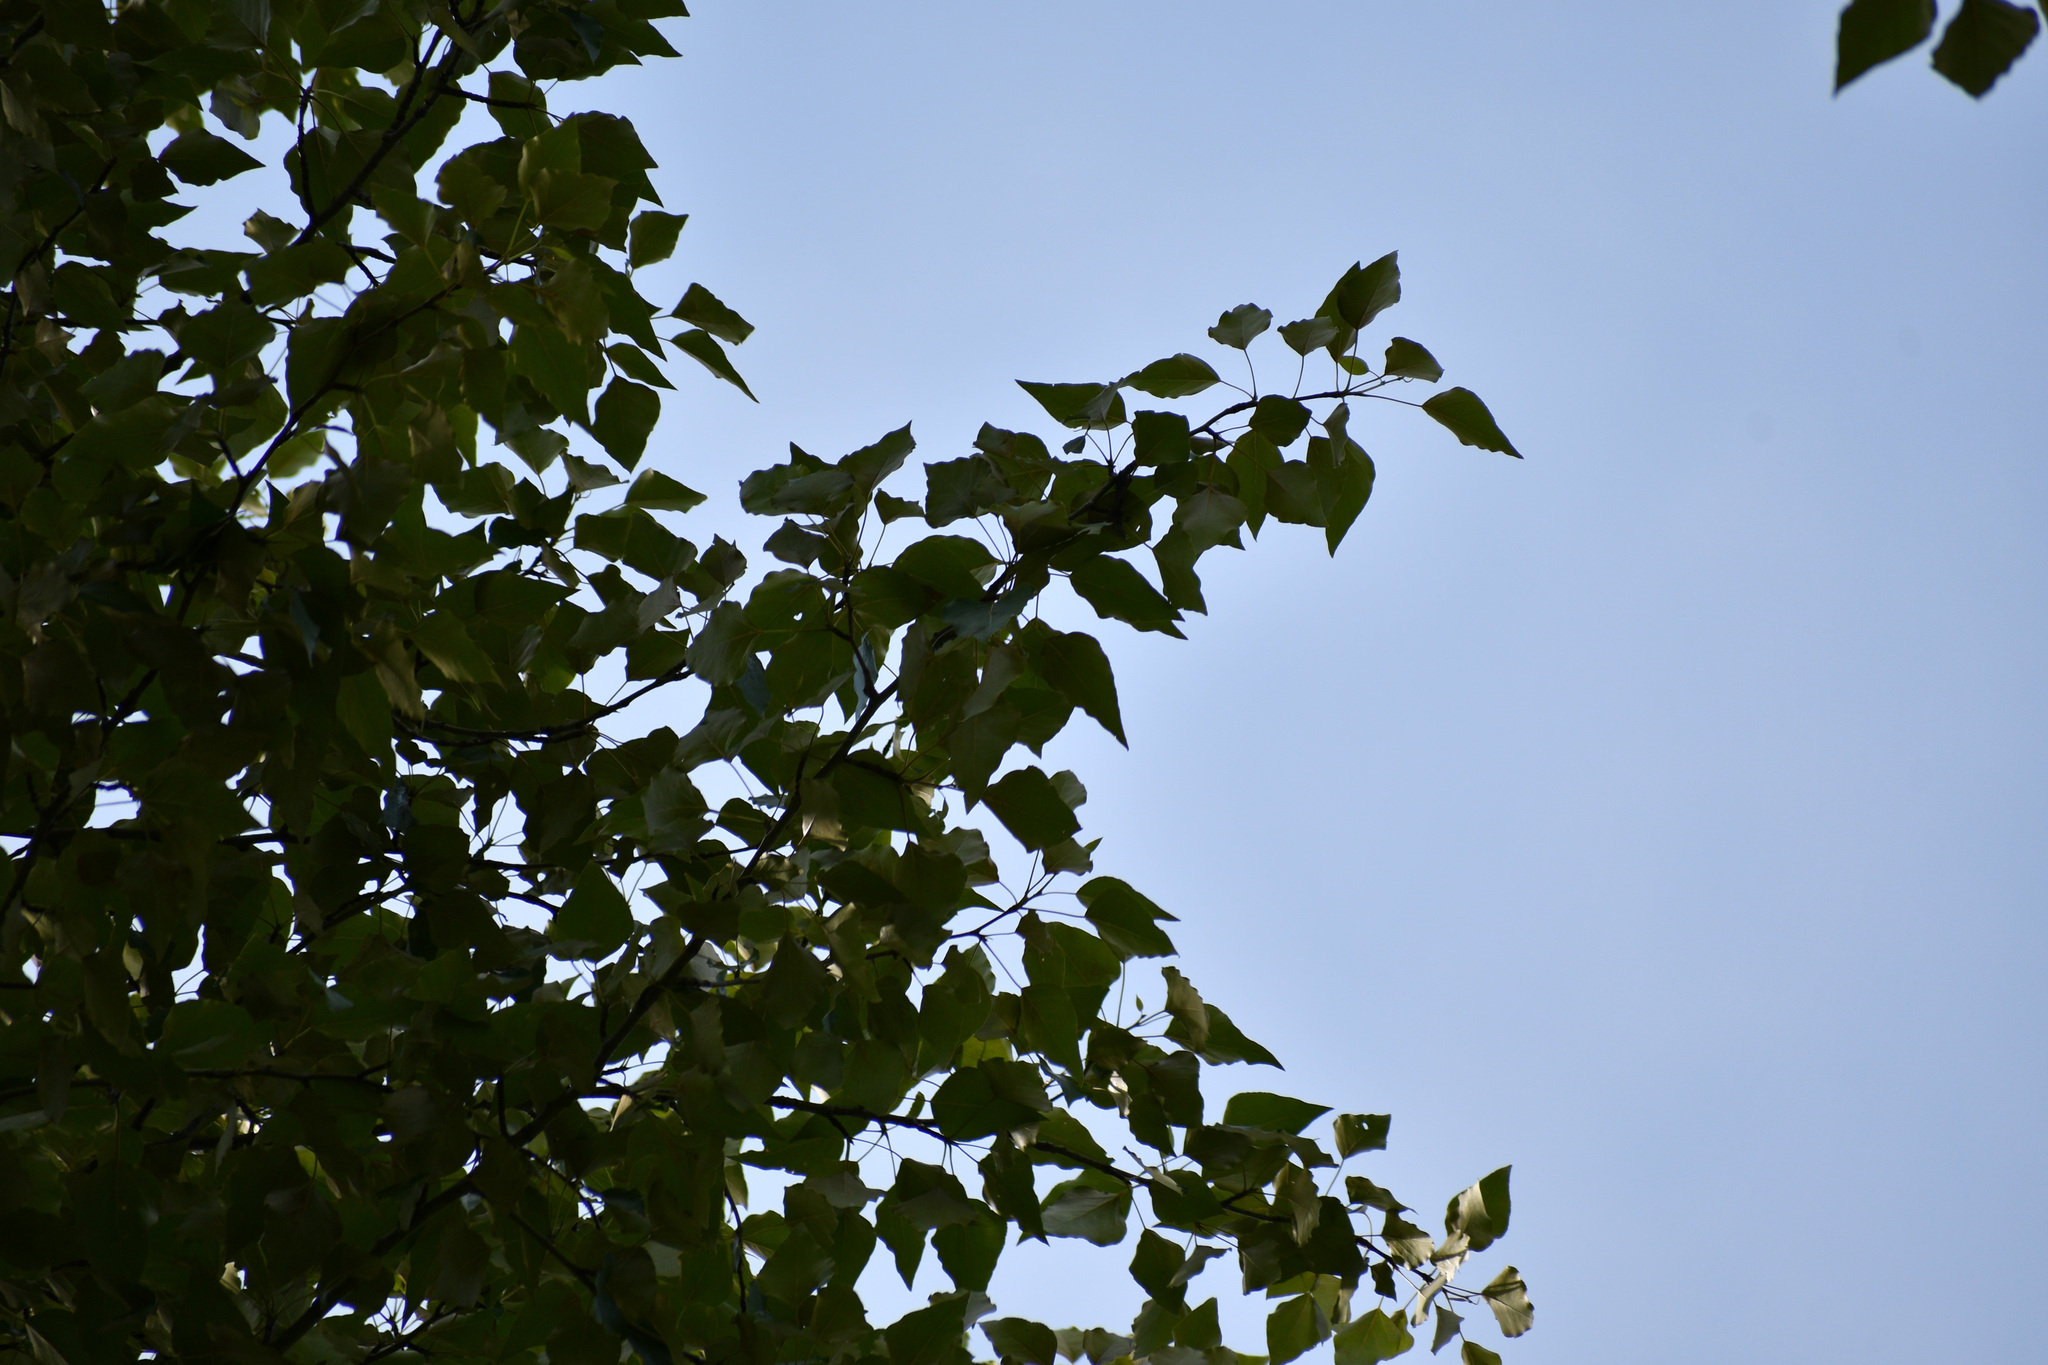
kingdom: Plantae
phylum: Tracheophyta
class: Magnoliopsida
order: Malpighiales
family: Salicaceae
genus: Populus
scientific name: Populus trichocarpa
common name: Black cottonwood
